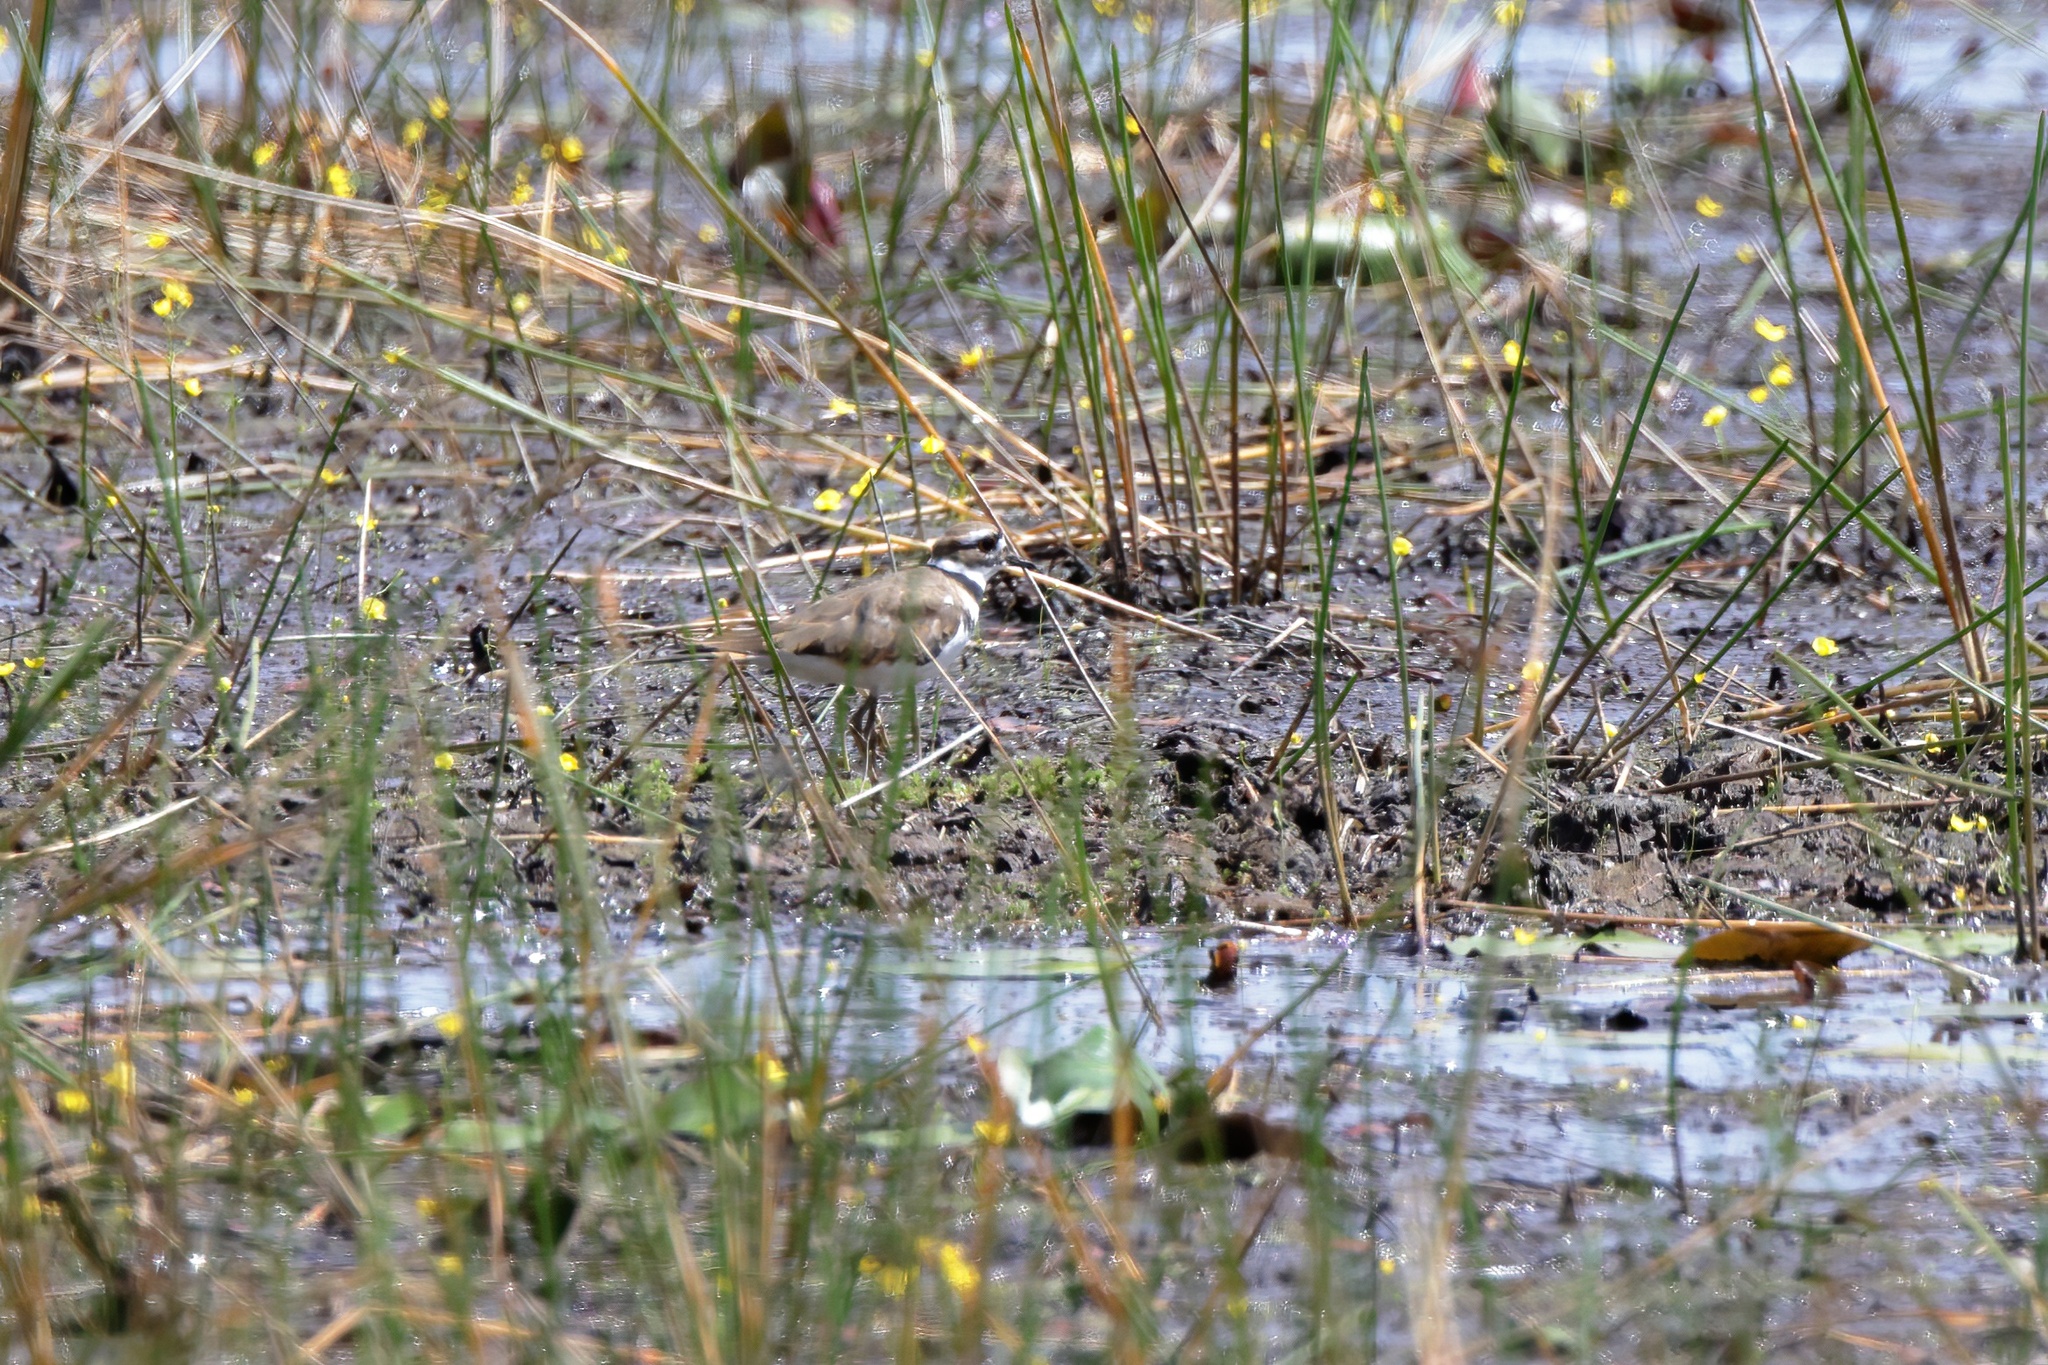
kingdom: Animalia
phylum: Chordata
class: Aves
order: Charadriiformes
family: Charadriidae
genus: Charadrius
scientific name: Charadrius vociferus
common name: Killdeer
